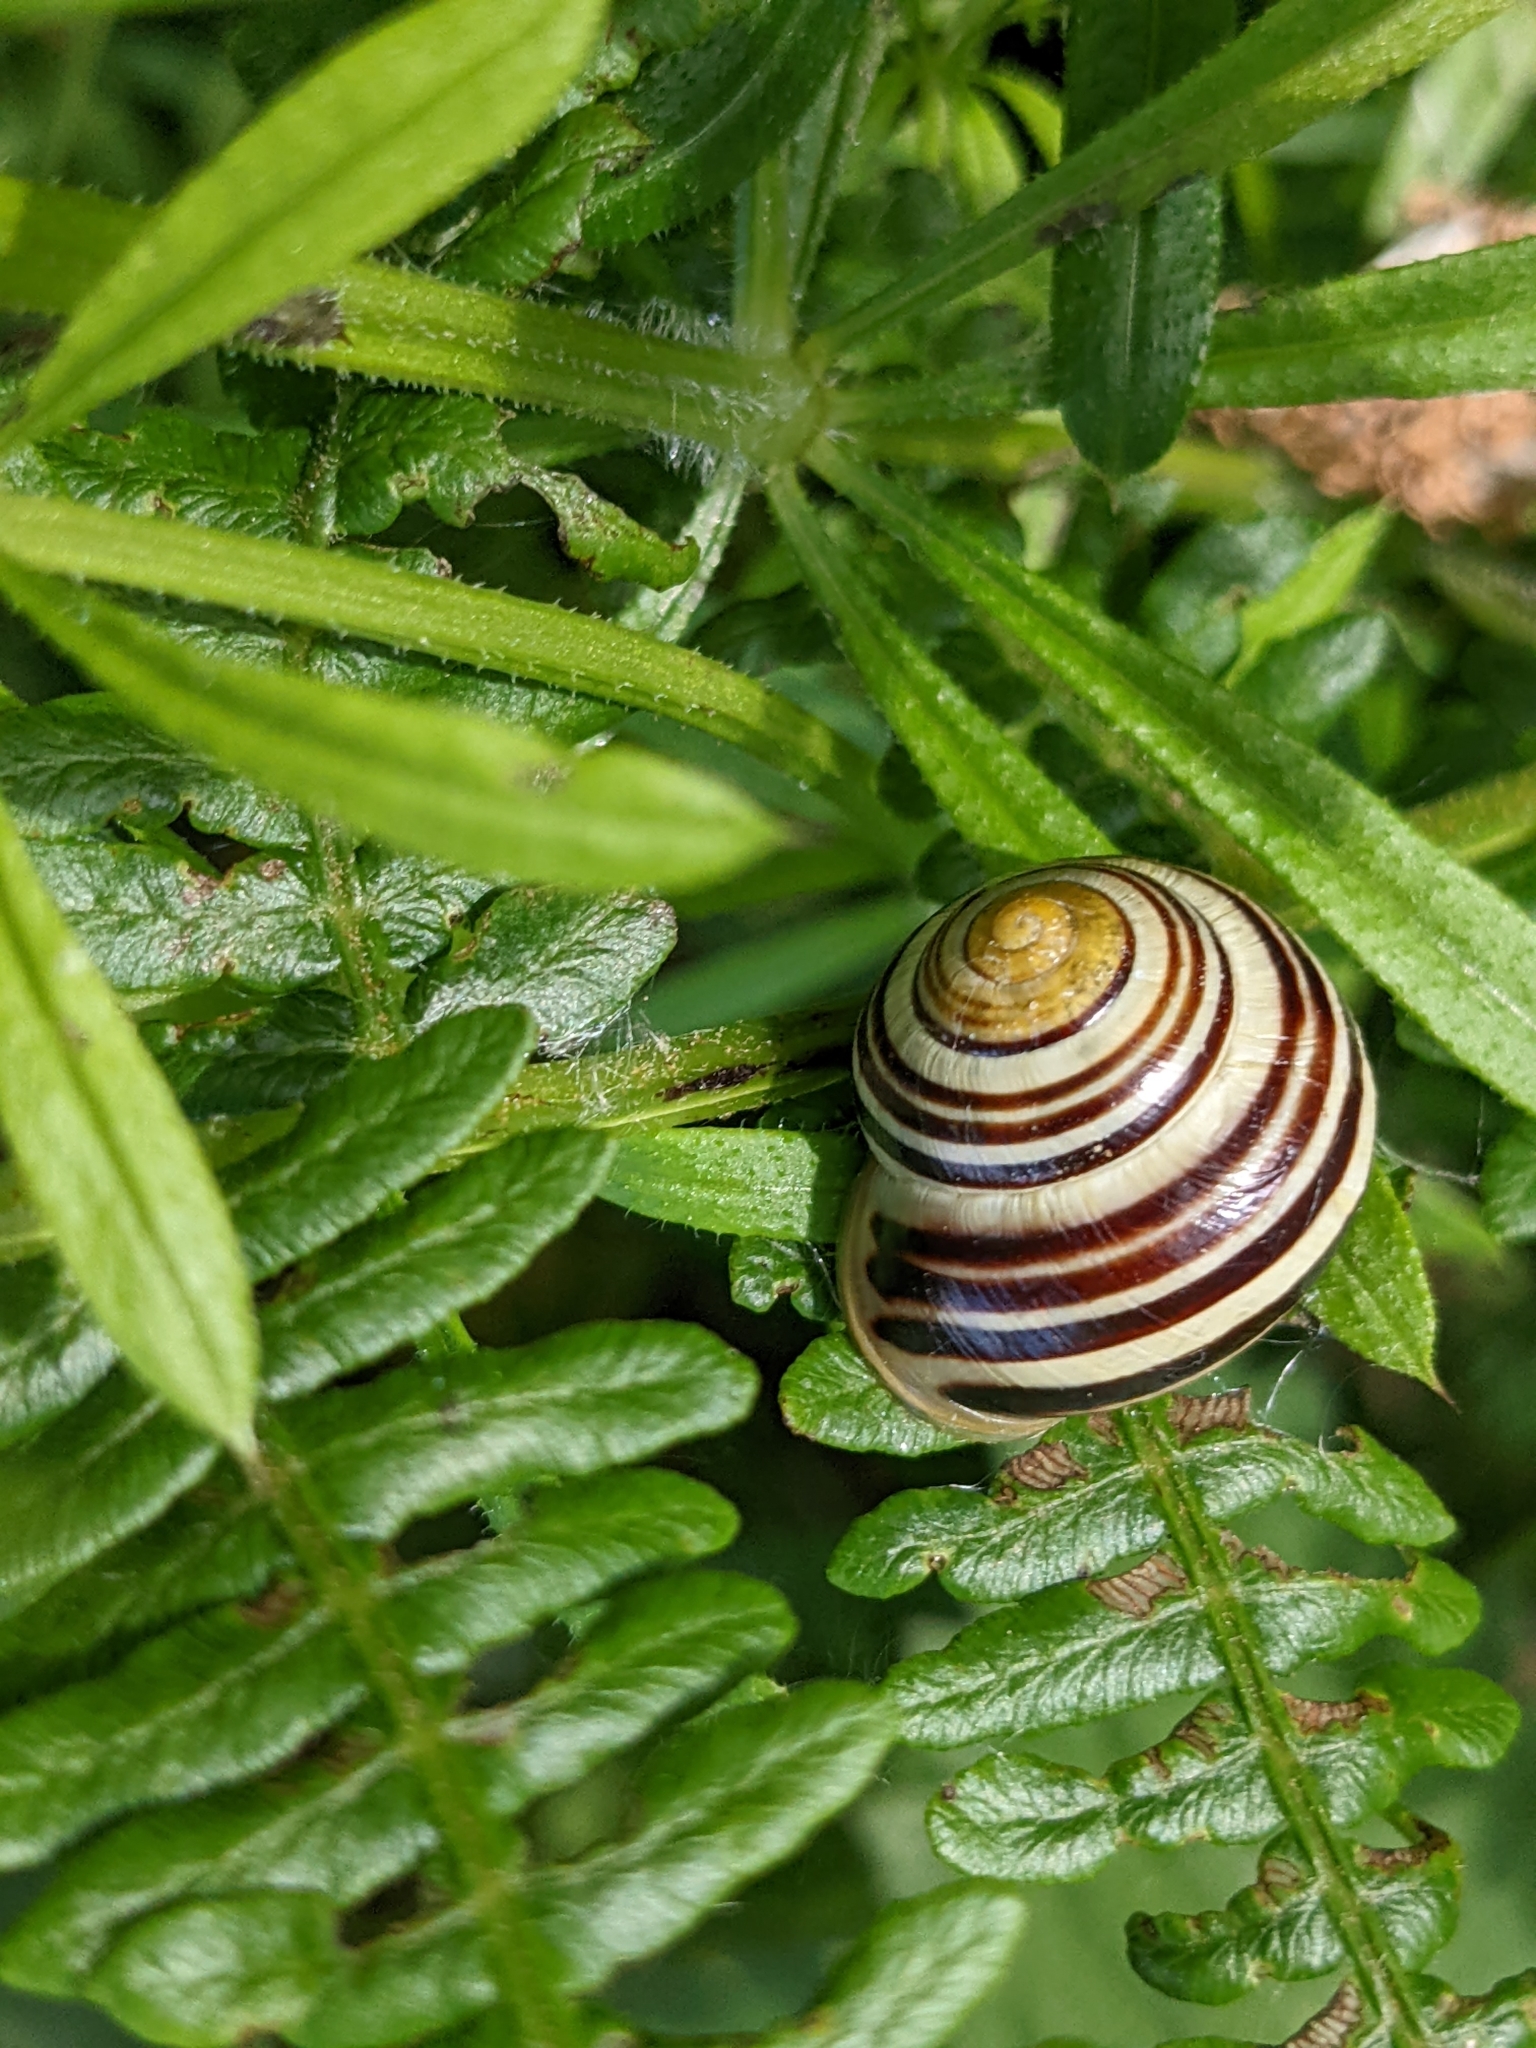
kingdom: Animalia
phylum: Mollusca
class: Gastropoda
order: Stylommatophora
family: Helicidae
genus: Cepaea
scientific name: Cepaea hortensis
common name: White-lip gardensnail
